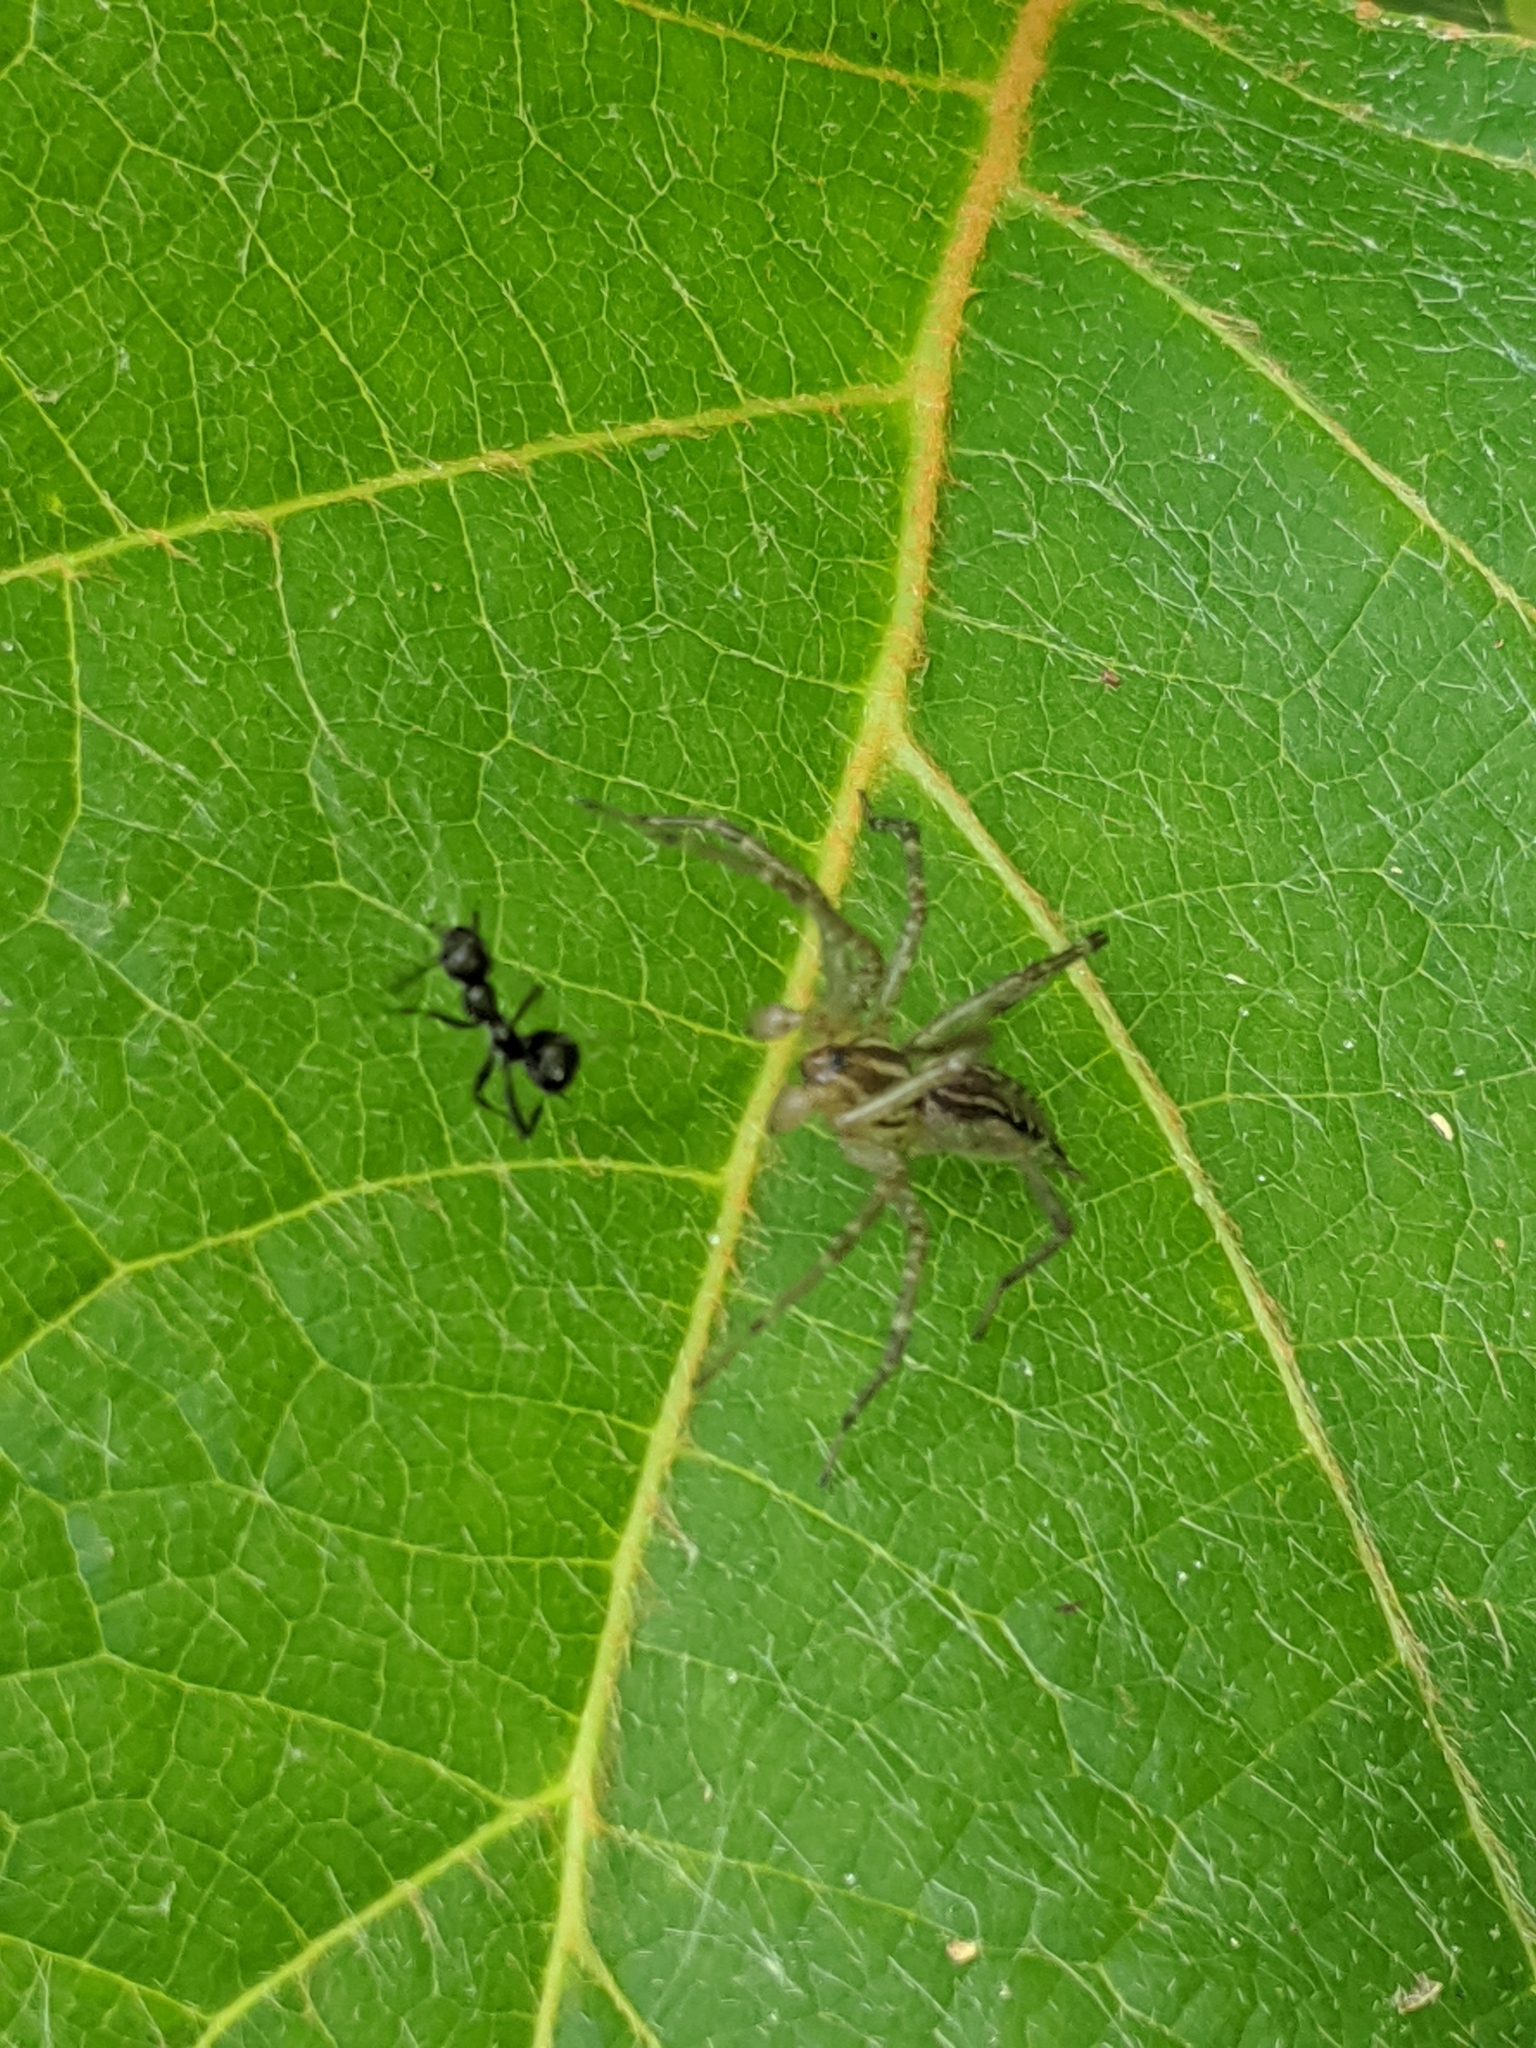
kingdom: Animalia
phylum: Arthropoda
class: Arachnida
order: Araneae
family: Agelenidae
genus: Agelenopsis
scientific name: Agelenopsis
